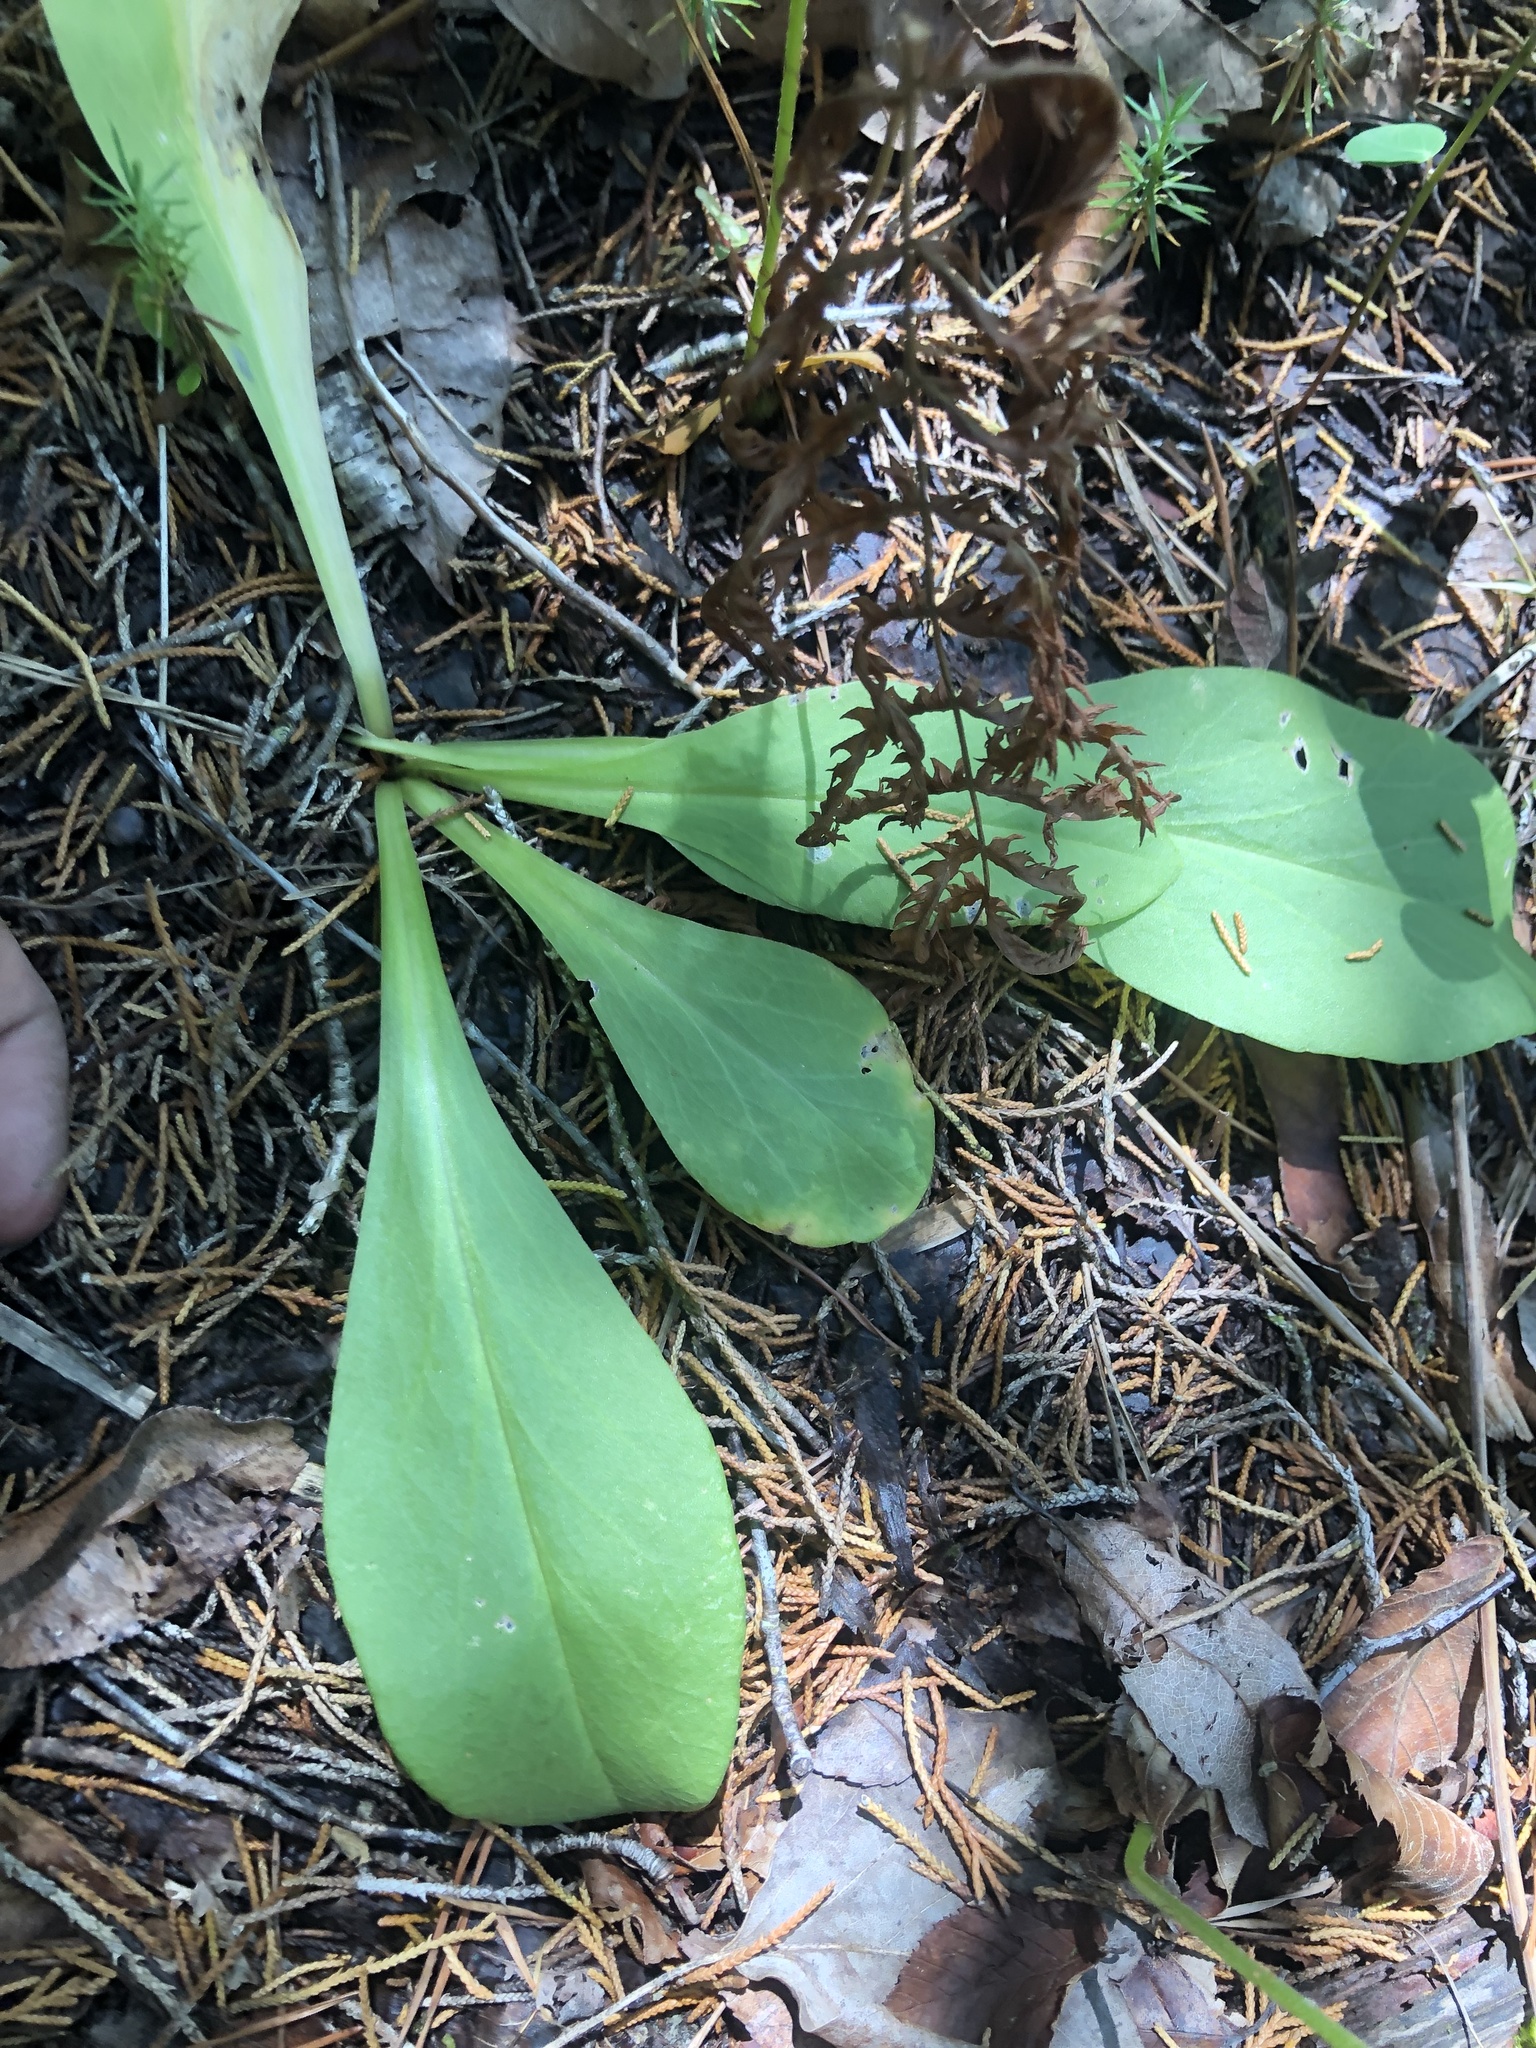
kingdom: Plantae
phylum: Tracheophyta
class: Magnoliopsida
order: Ericales
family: Primulaceae
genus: Dodecatheon
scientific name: Dodecatheon meadia
